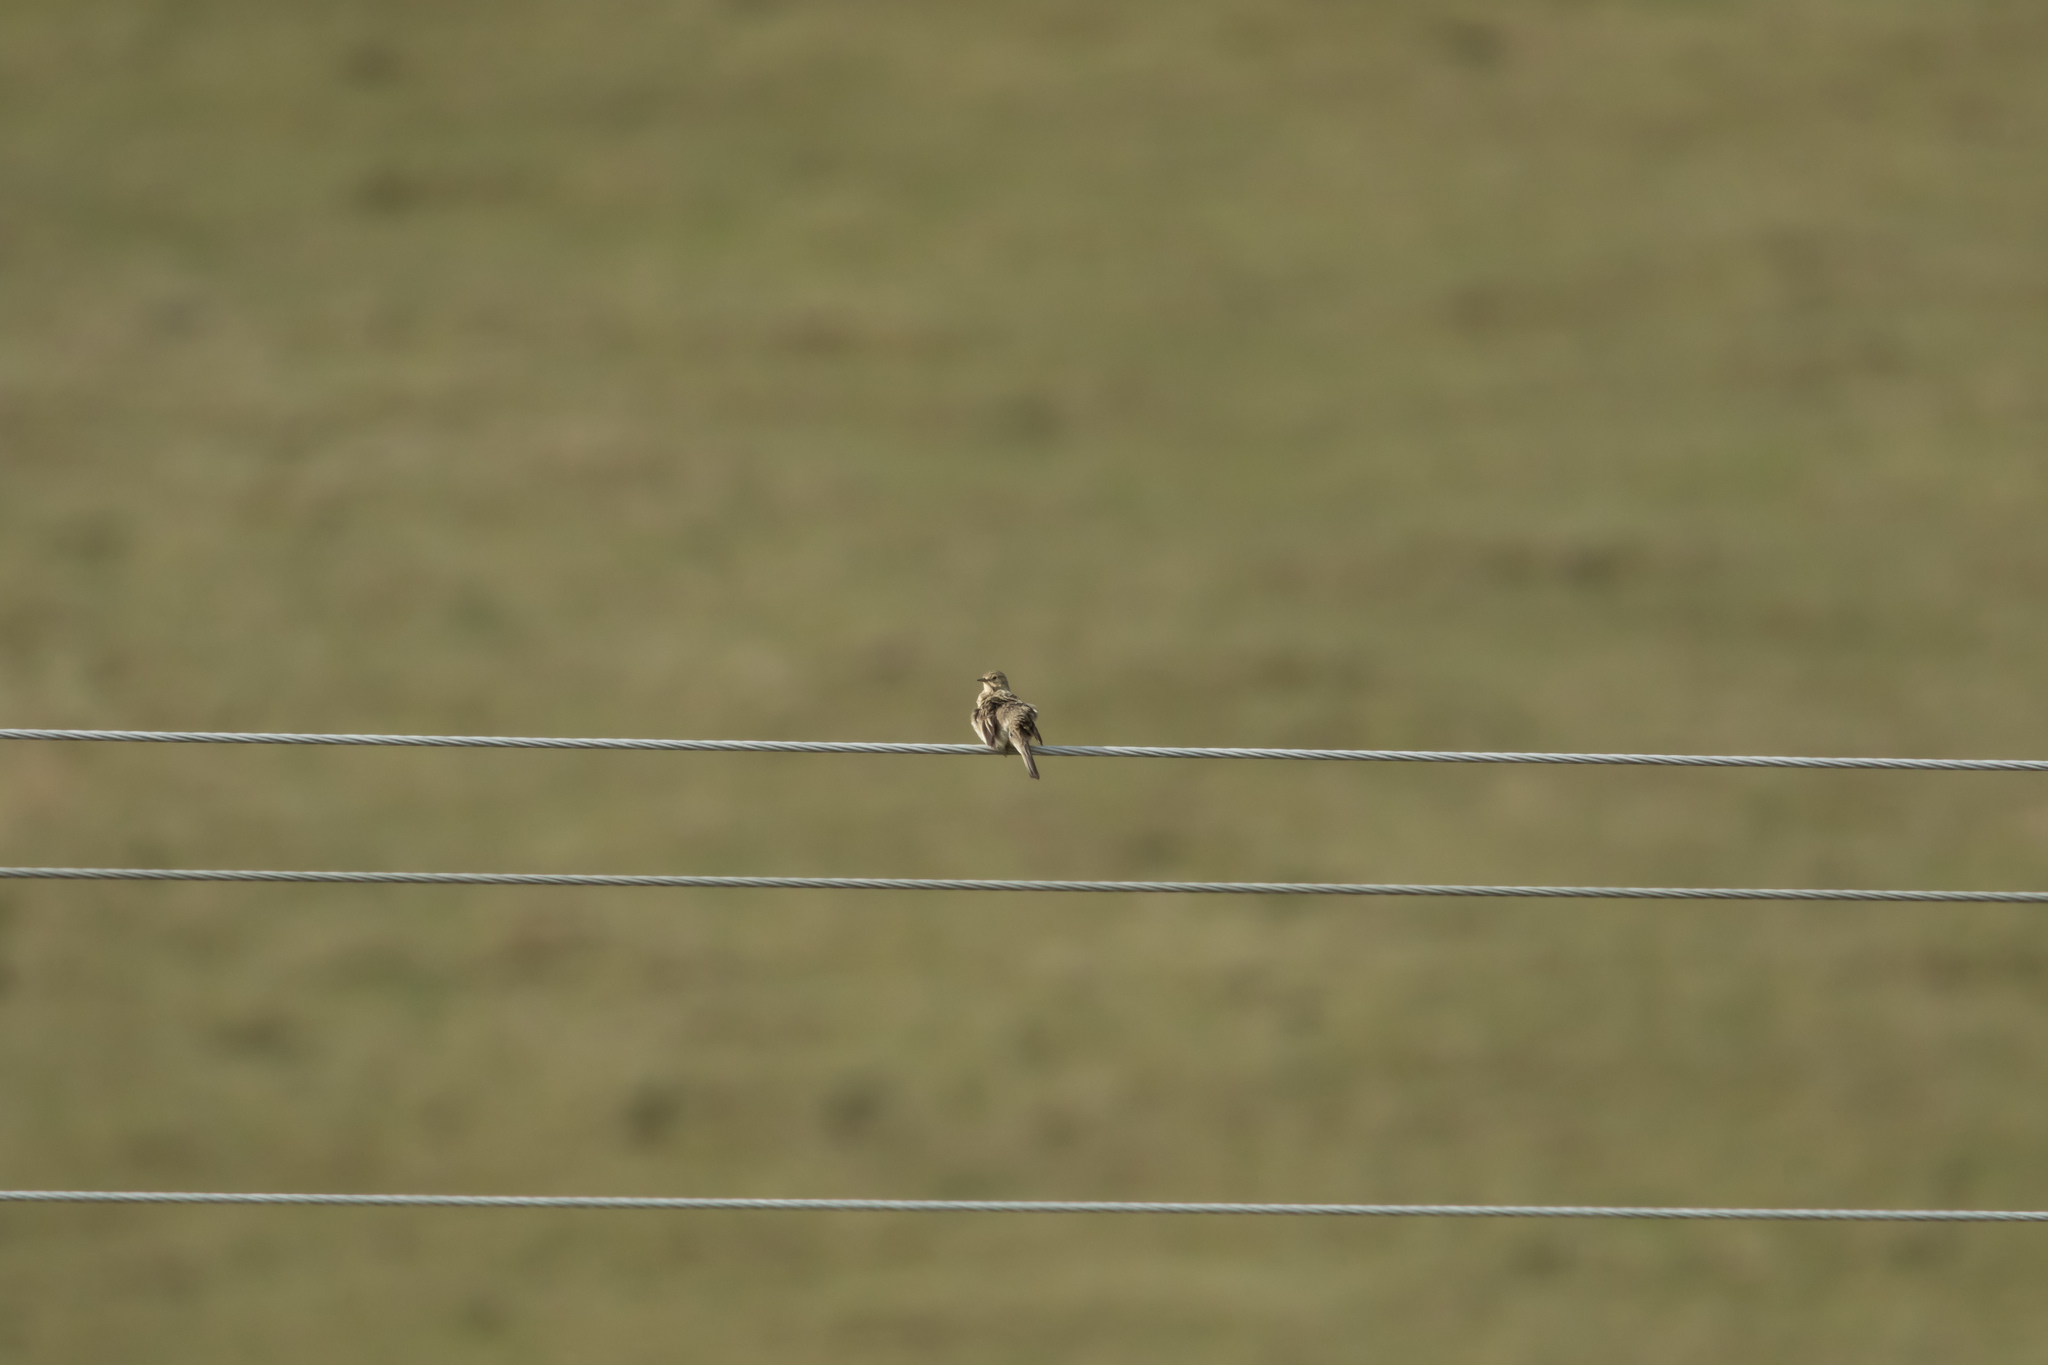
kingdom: Animalia
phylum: Chordata
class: Aves
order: Passeriformes
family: Motacillidae
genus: Anthus
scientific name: Anthus pratensis
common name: Meadow pipit
